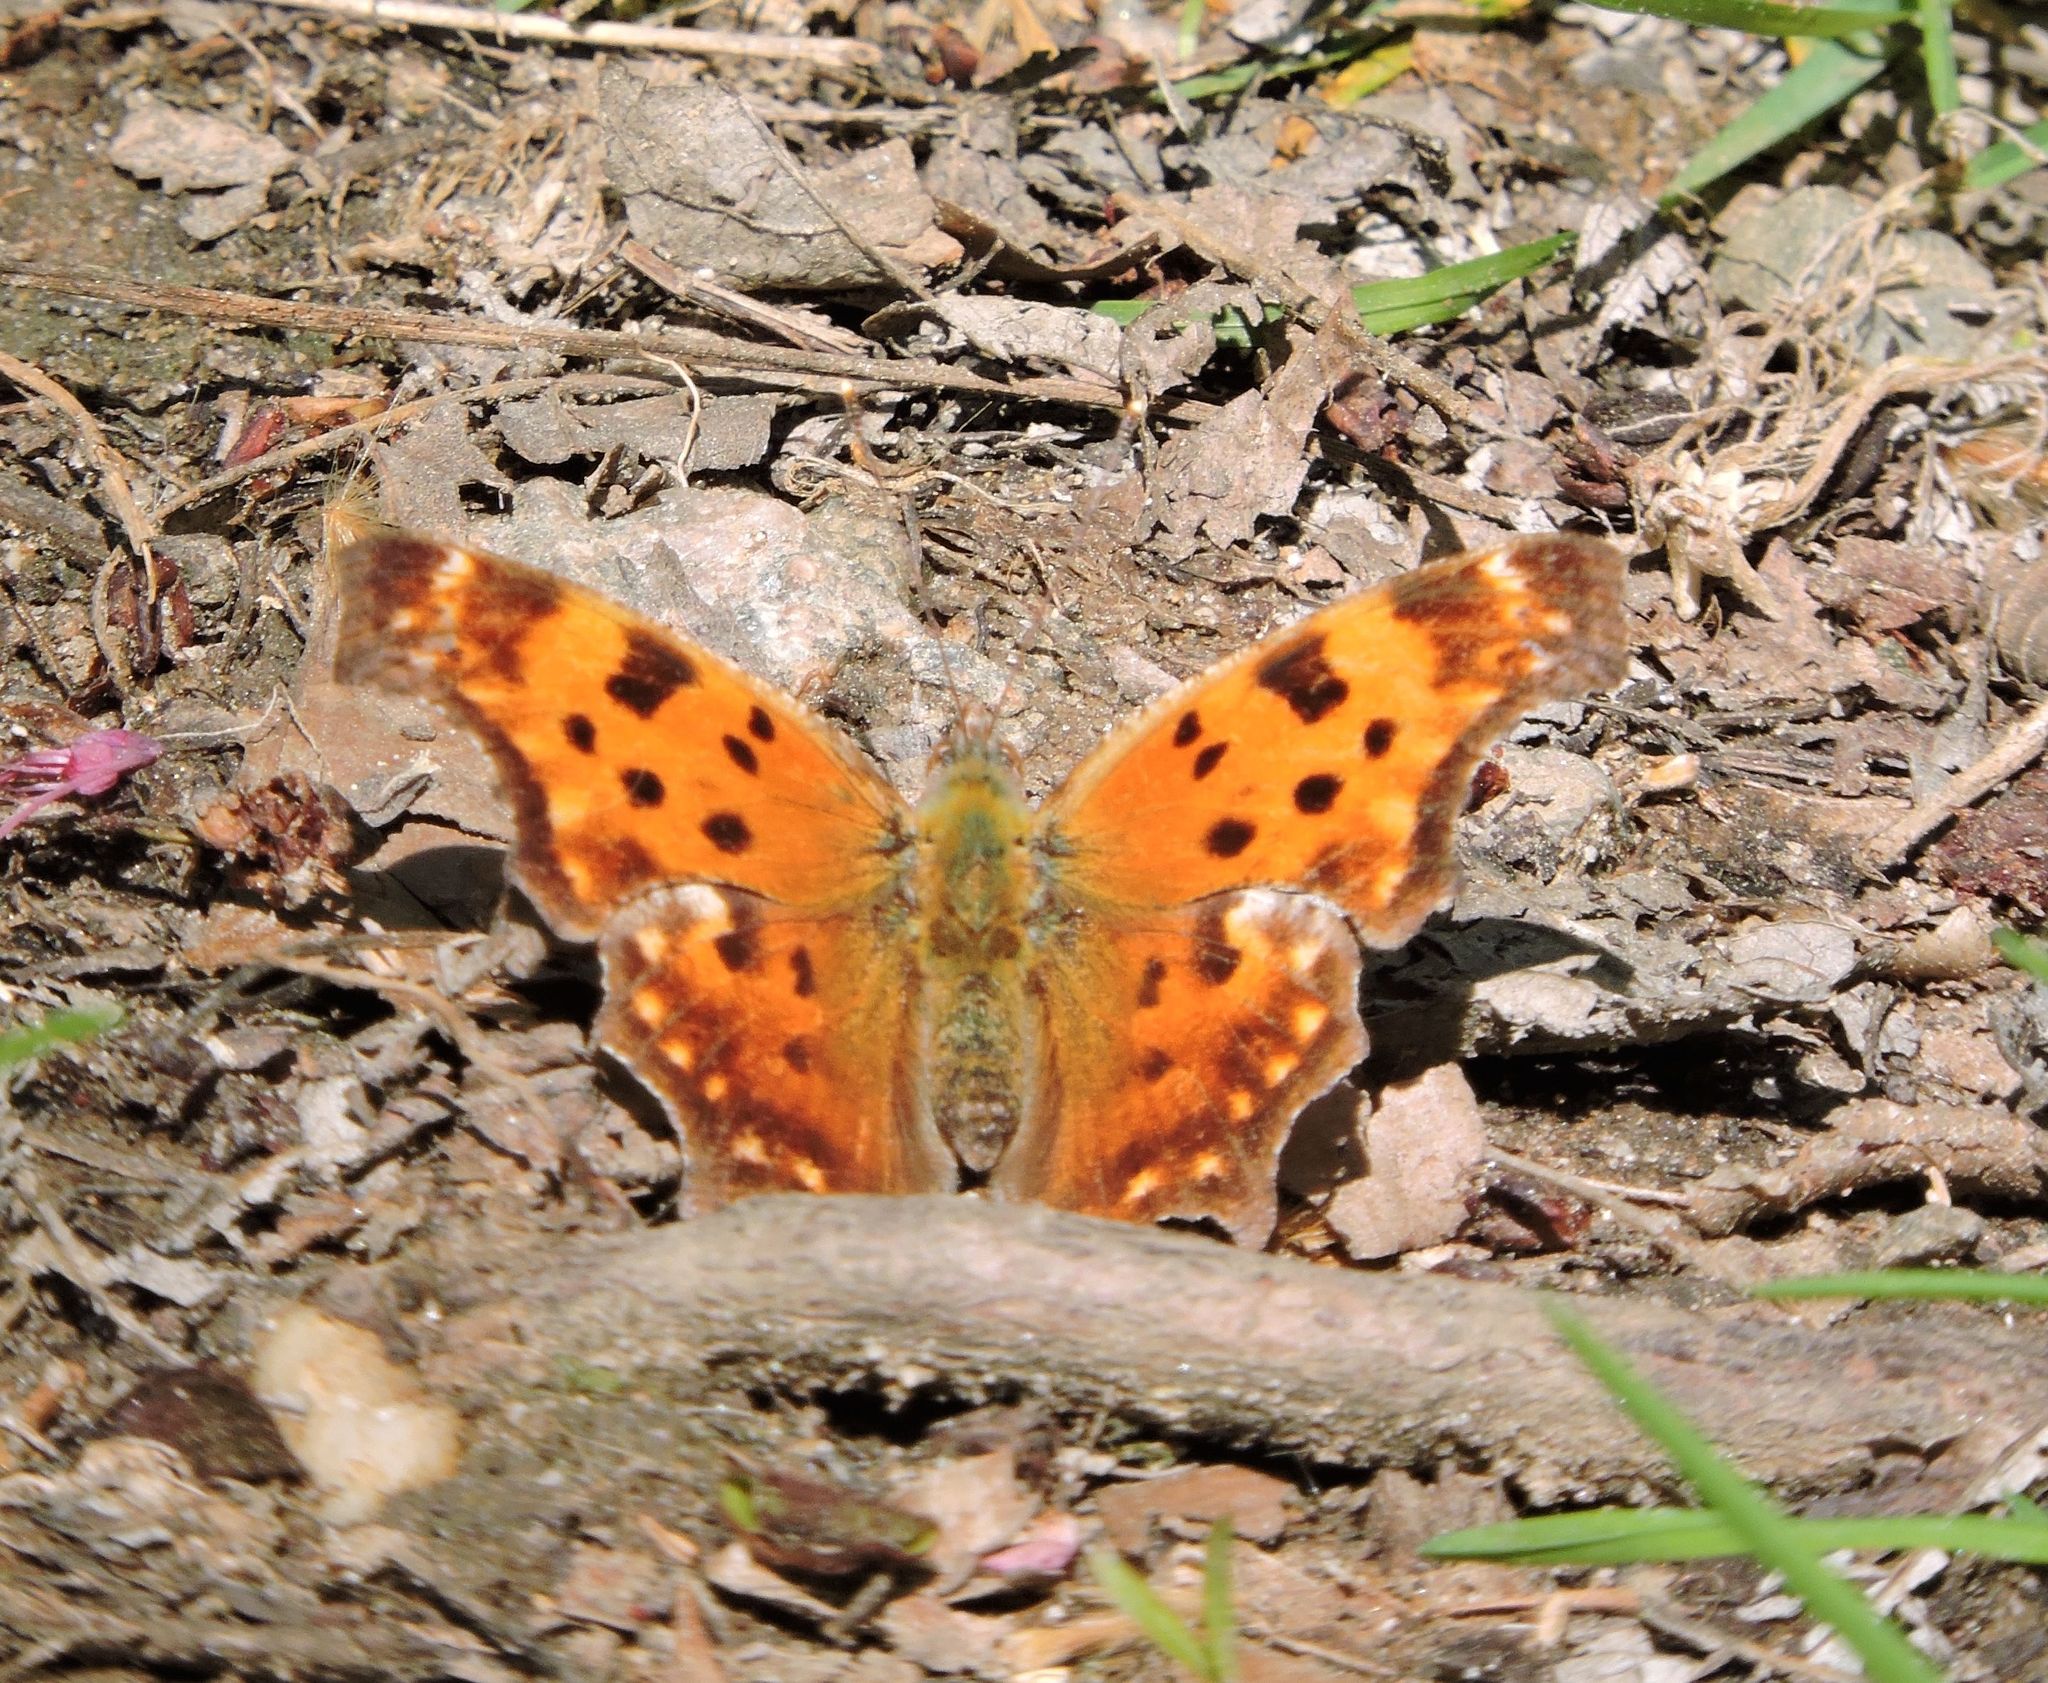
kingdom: Animalia
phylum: Arthropoda
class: Insecta
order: Lepidoptera
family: Nymphalidae
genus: Polygonia
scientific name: Polygonia comma
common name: Eastern comma
